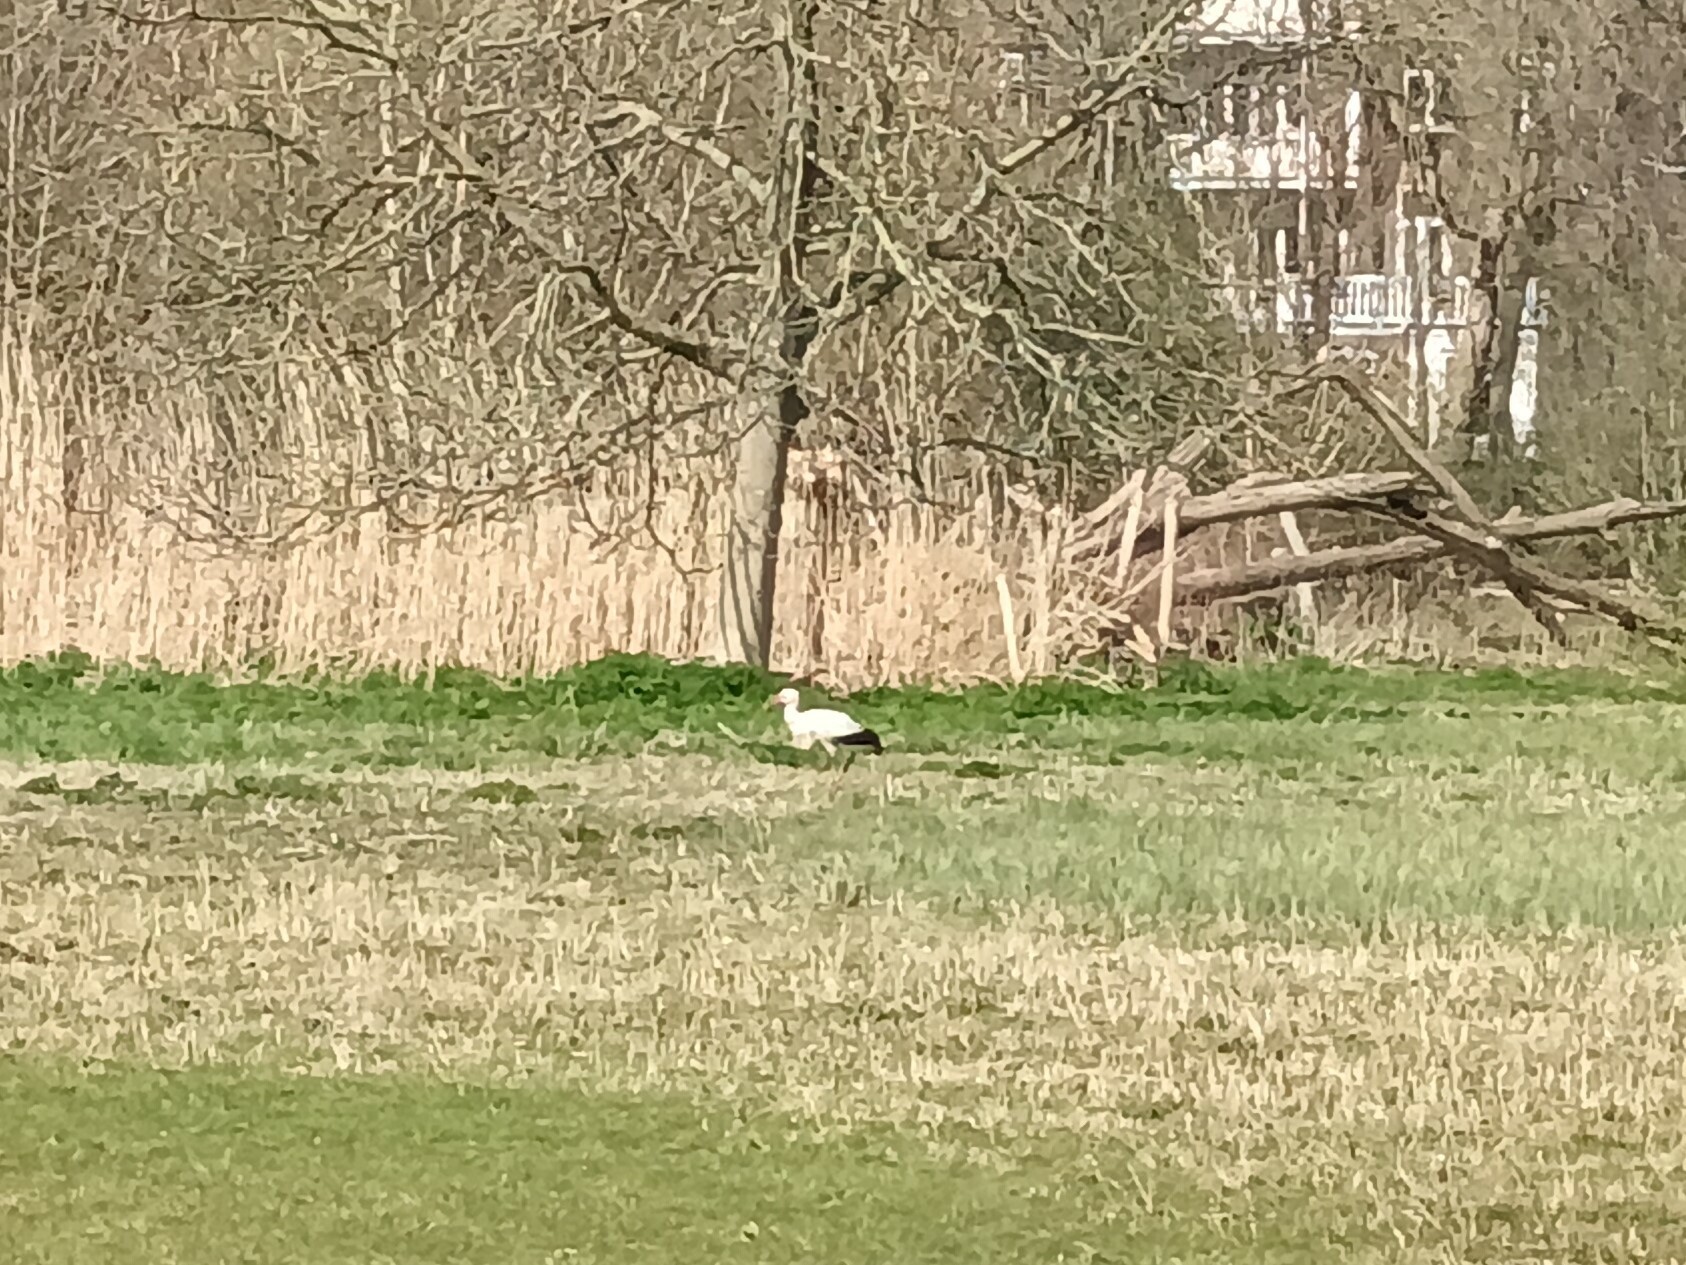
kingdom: Animalia
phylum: Chordata
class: Aves
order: Ciconiiformes
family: Ciconiidae
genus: Ciconia
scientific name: Ciconia ciconia
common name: White stork
